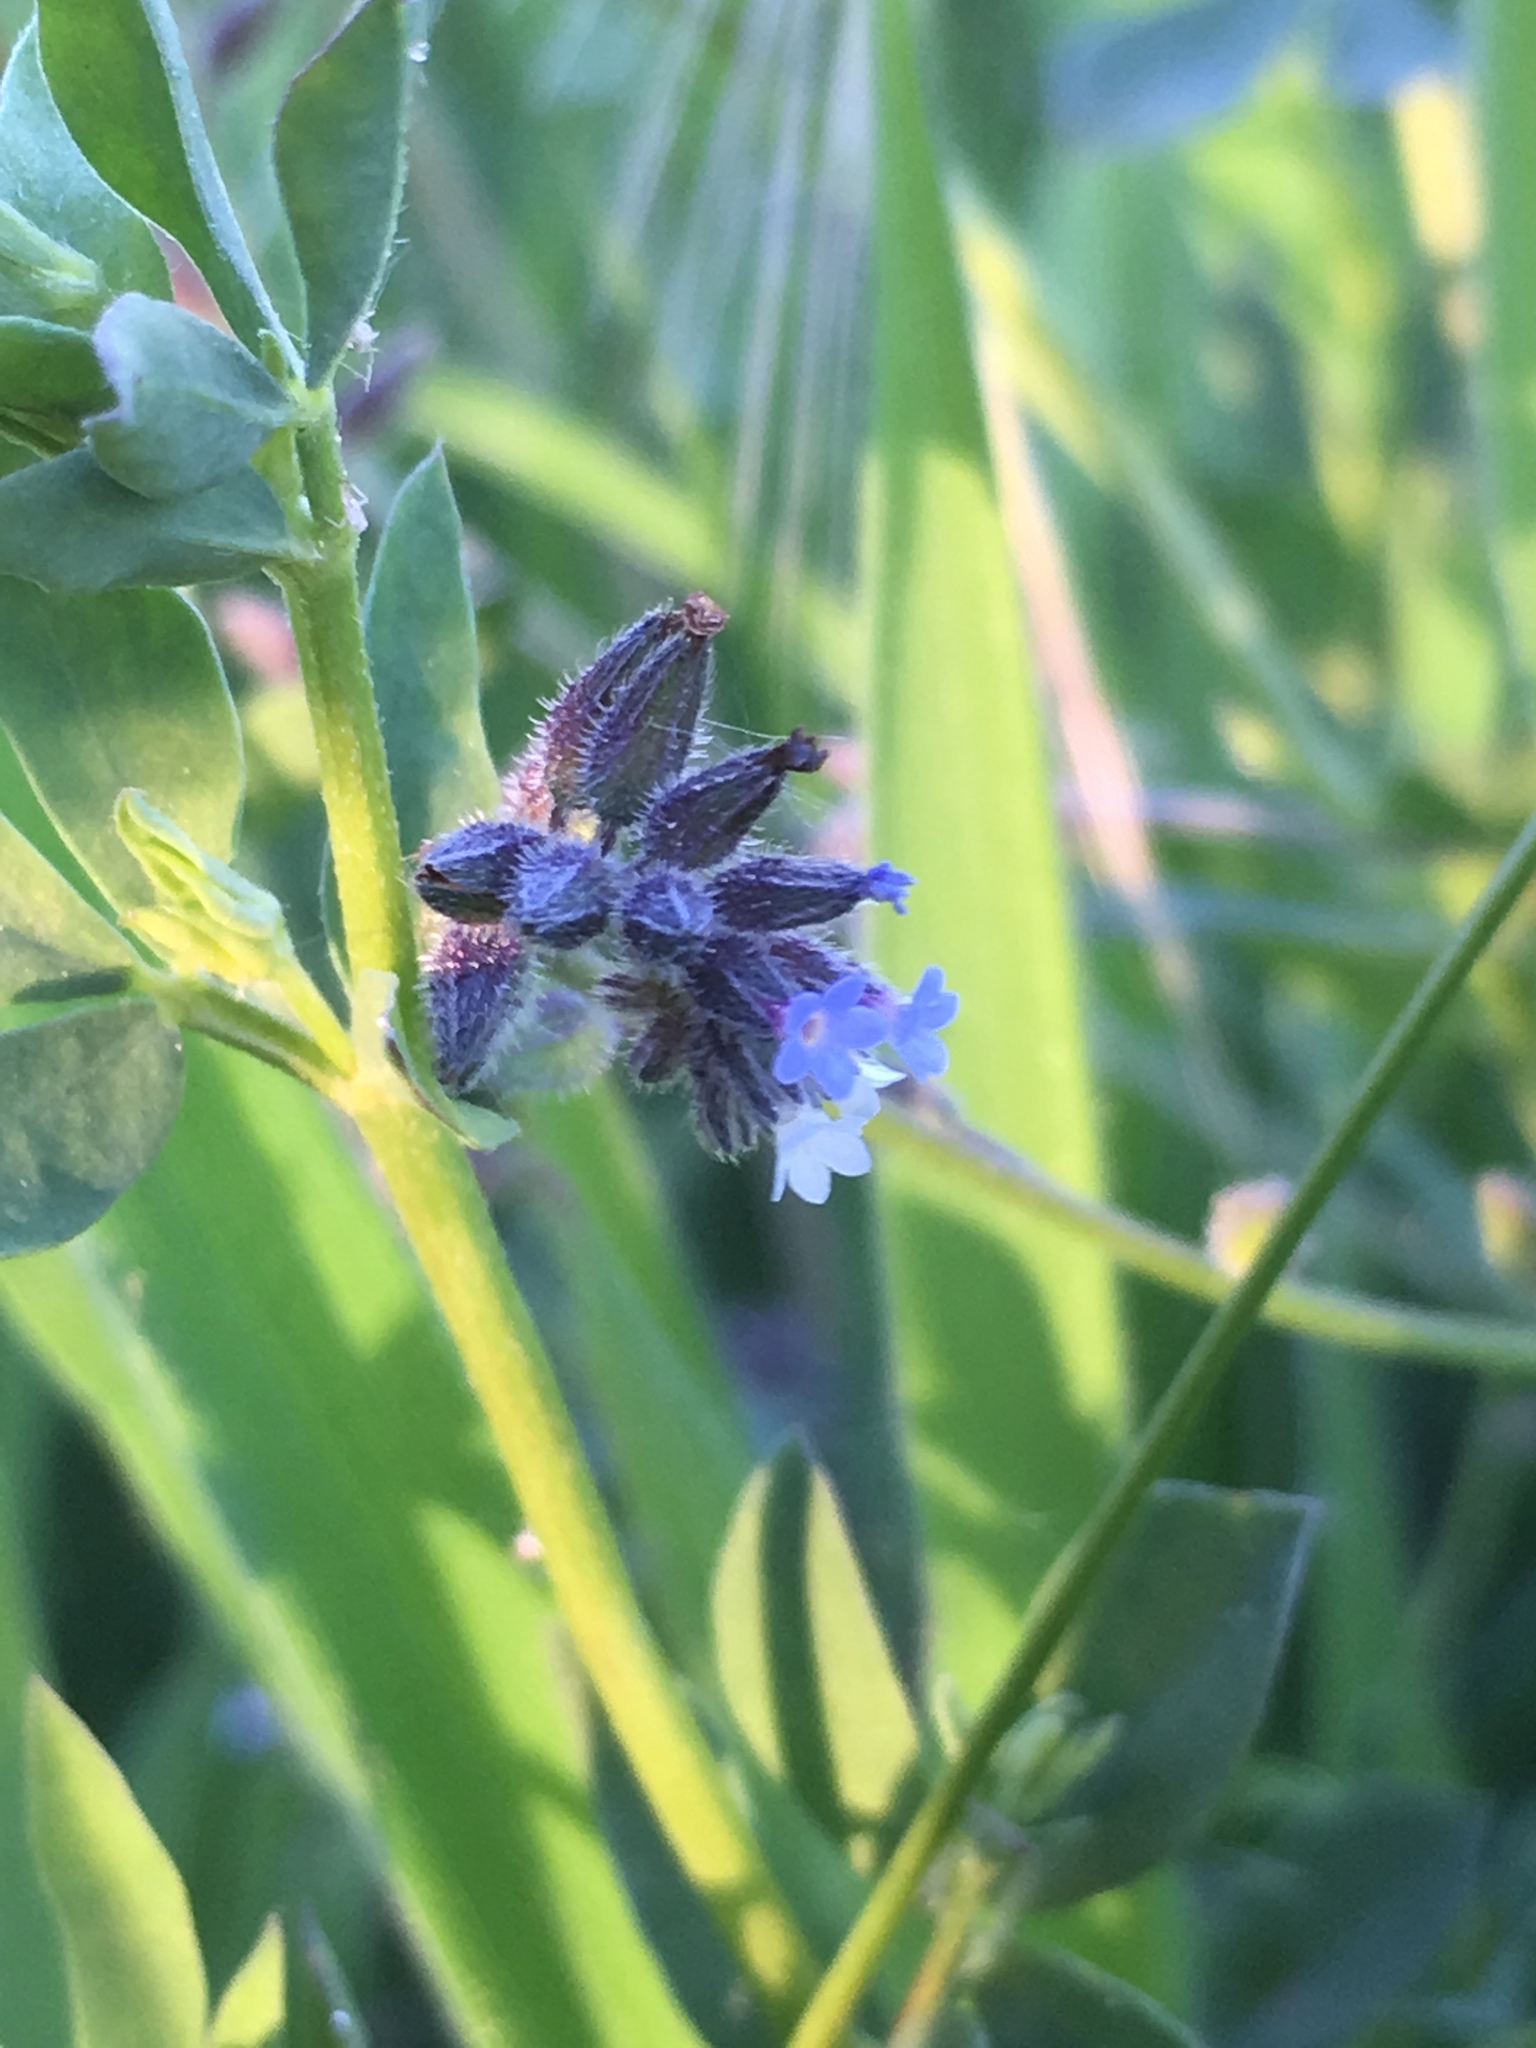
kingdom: Plantae
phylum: Tracheophyta
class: Magnoliopsida
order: Boraginales
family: Boraginaceae
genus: Myosotis
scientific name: Myosotis discolor
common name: Changing forget-me-not
